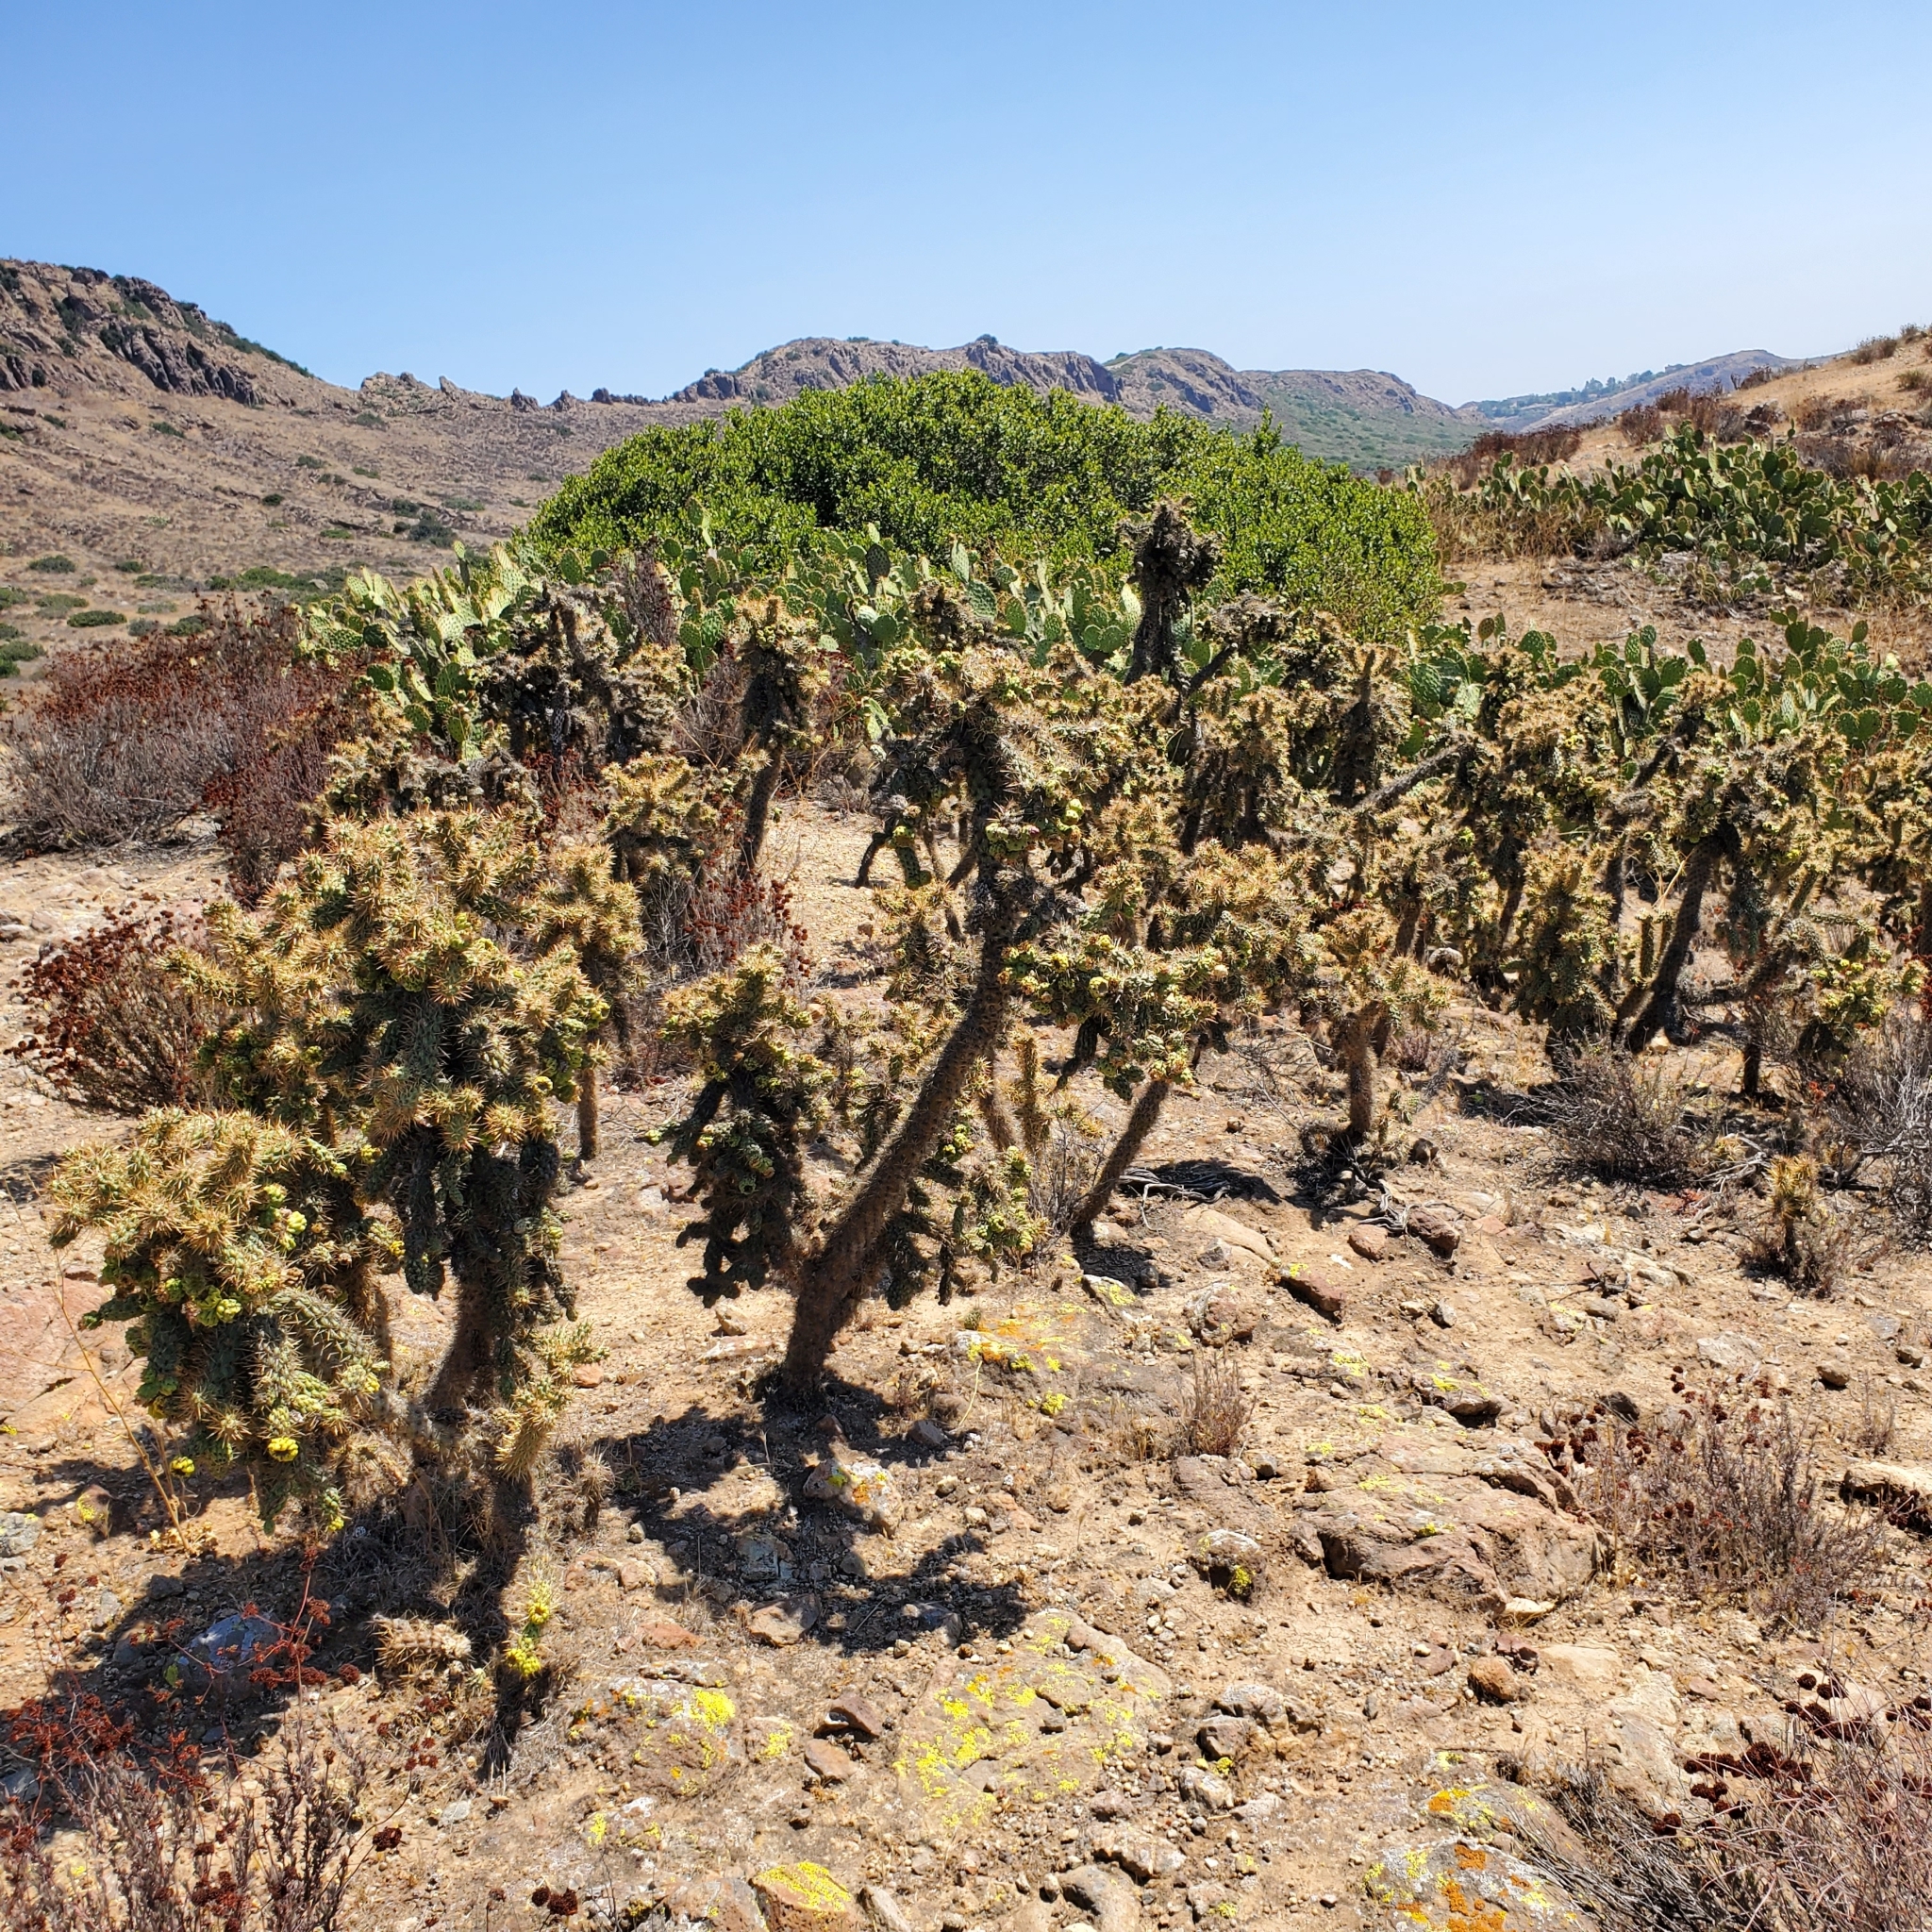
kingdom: Plantae
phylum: Tracheophyta
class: Magnoliopsida
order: Caryophyllales
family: Cactaceae
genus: Cylindropuntia
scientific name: Cylindropuntia prolifera
